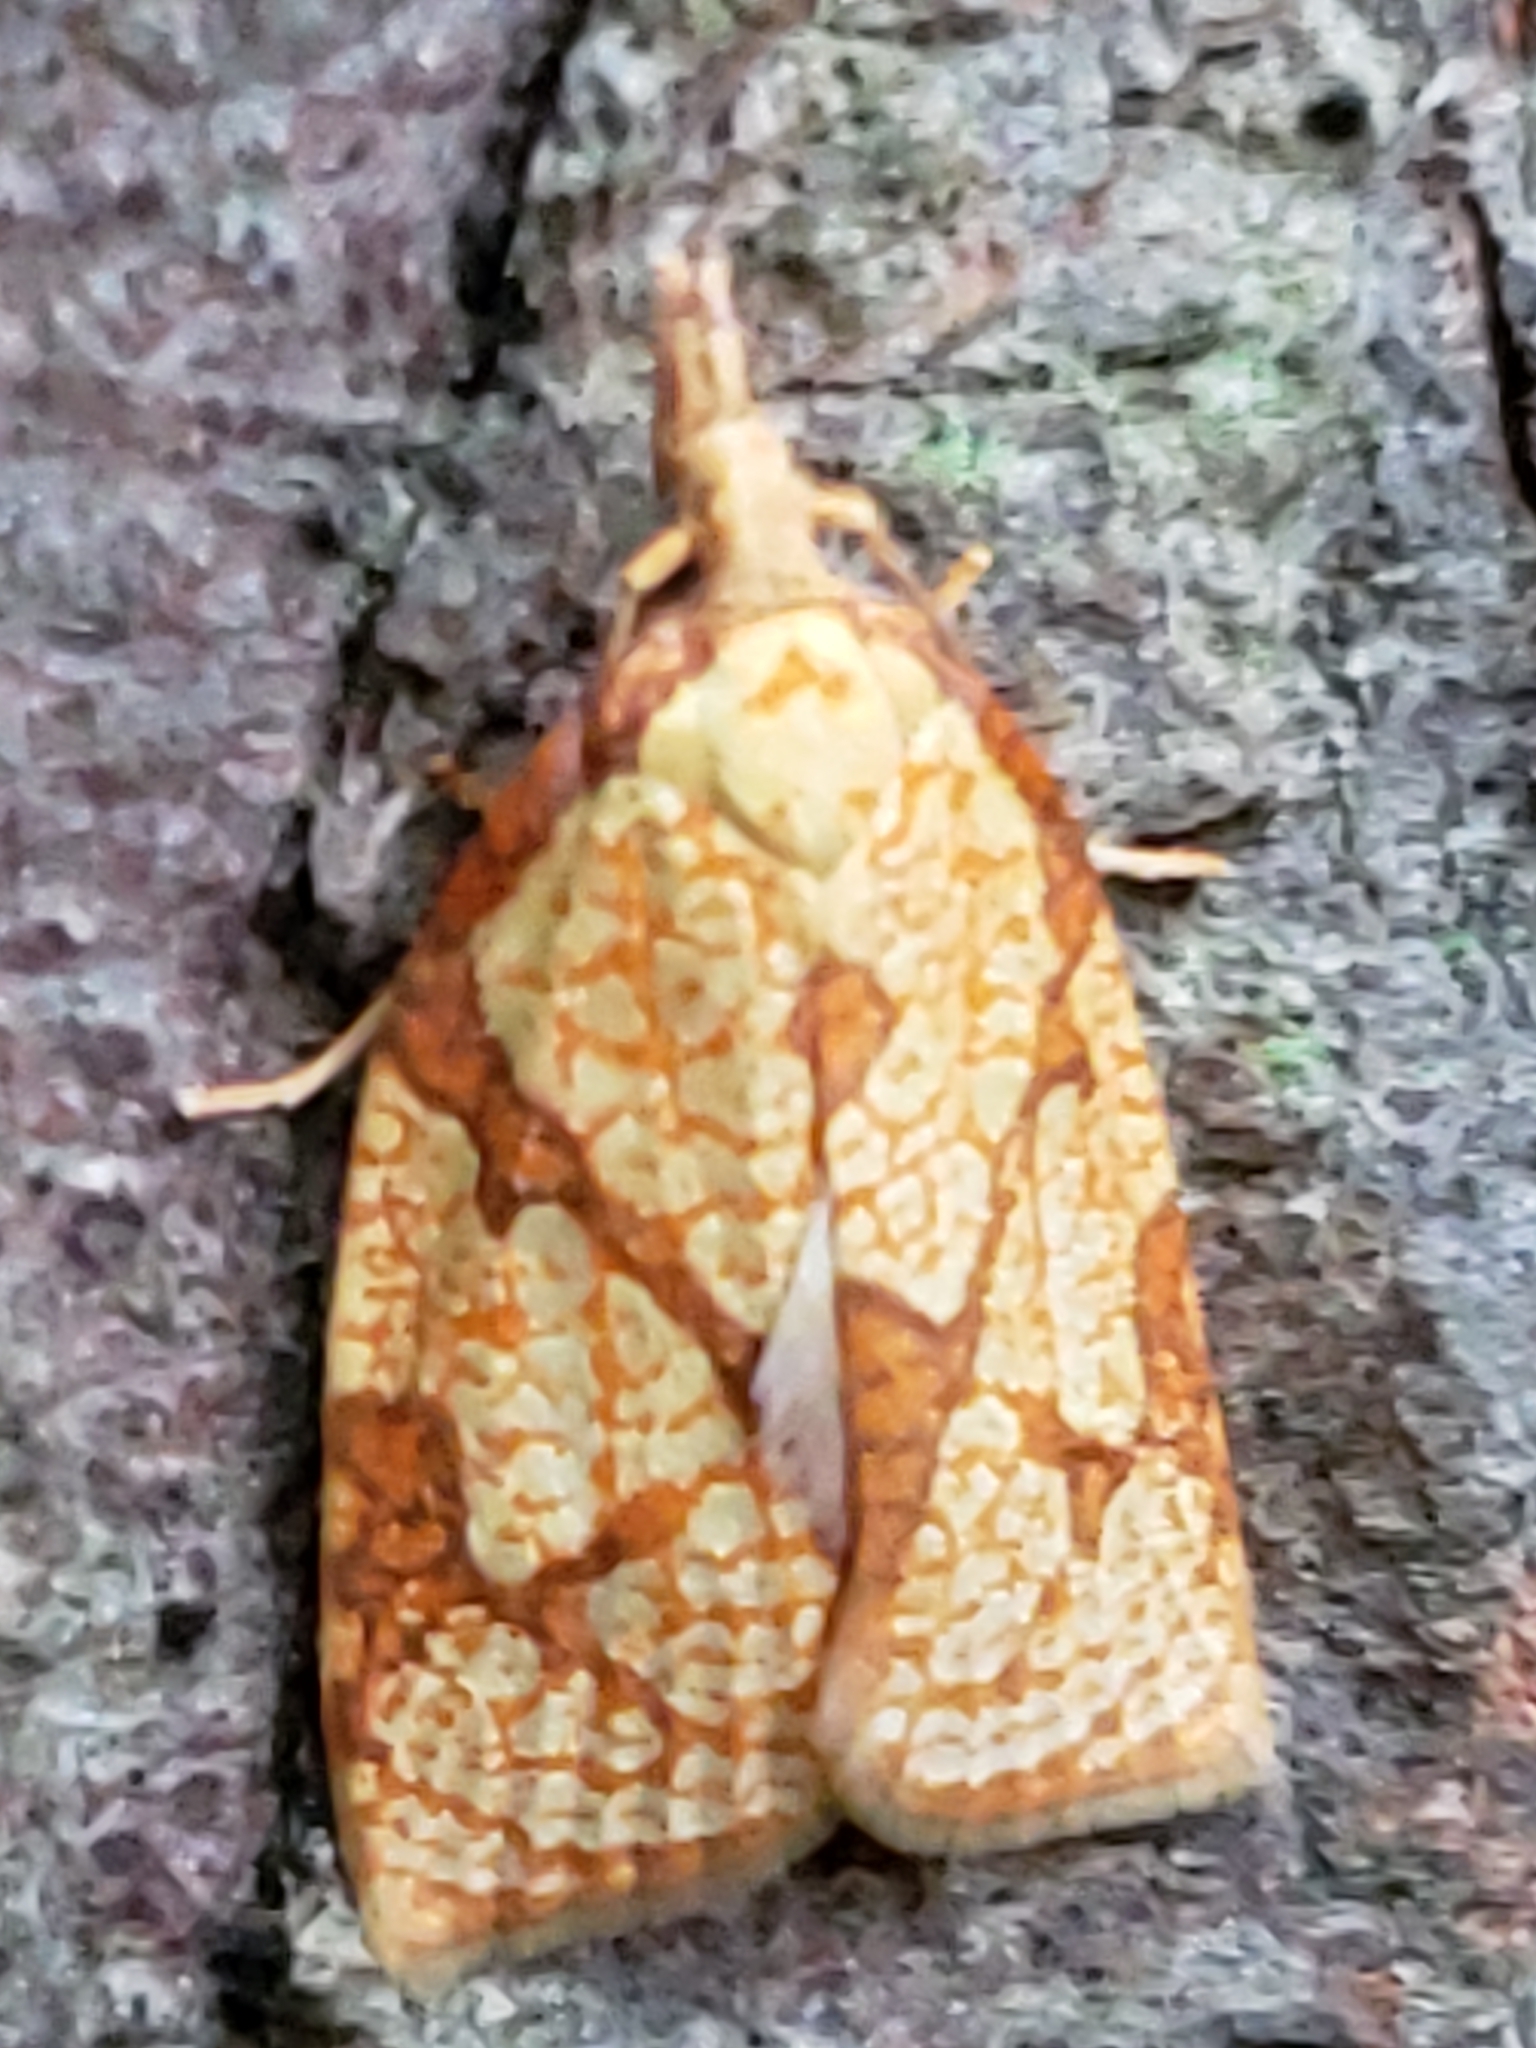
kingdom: Animalia
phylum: Arthropoda
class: Insecta
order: Lepidoptera
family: Tortricidae
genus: Cenopis
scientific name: Cenopis reticulatana
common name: Reticulated fruitworm moth
